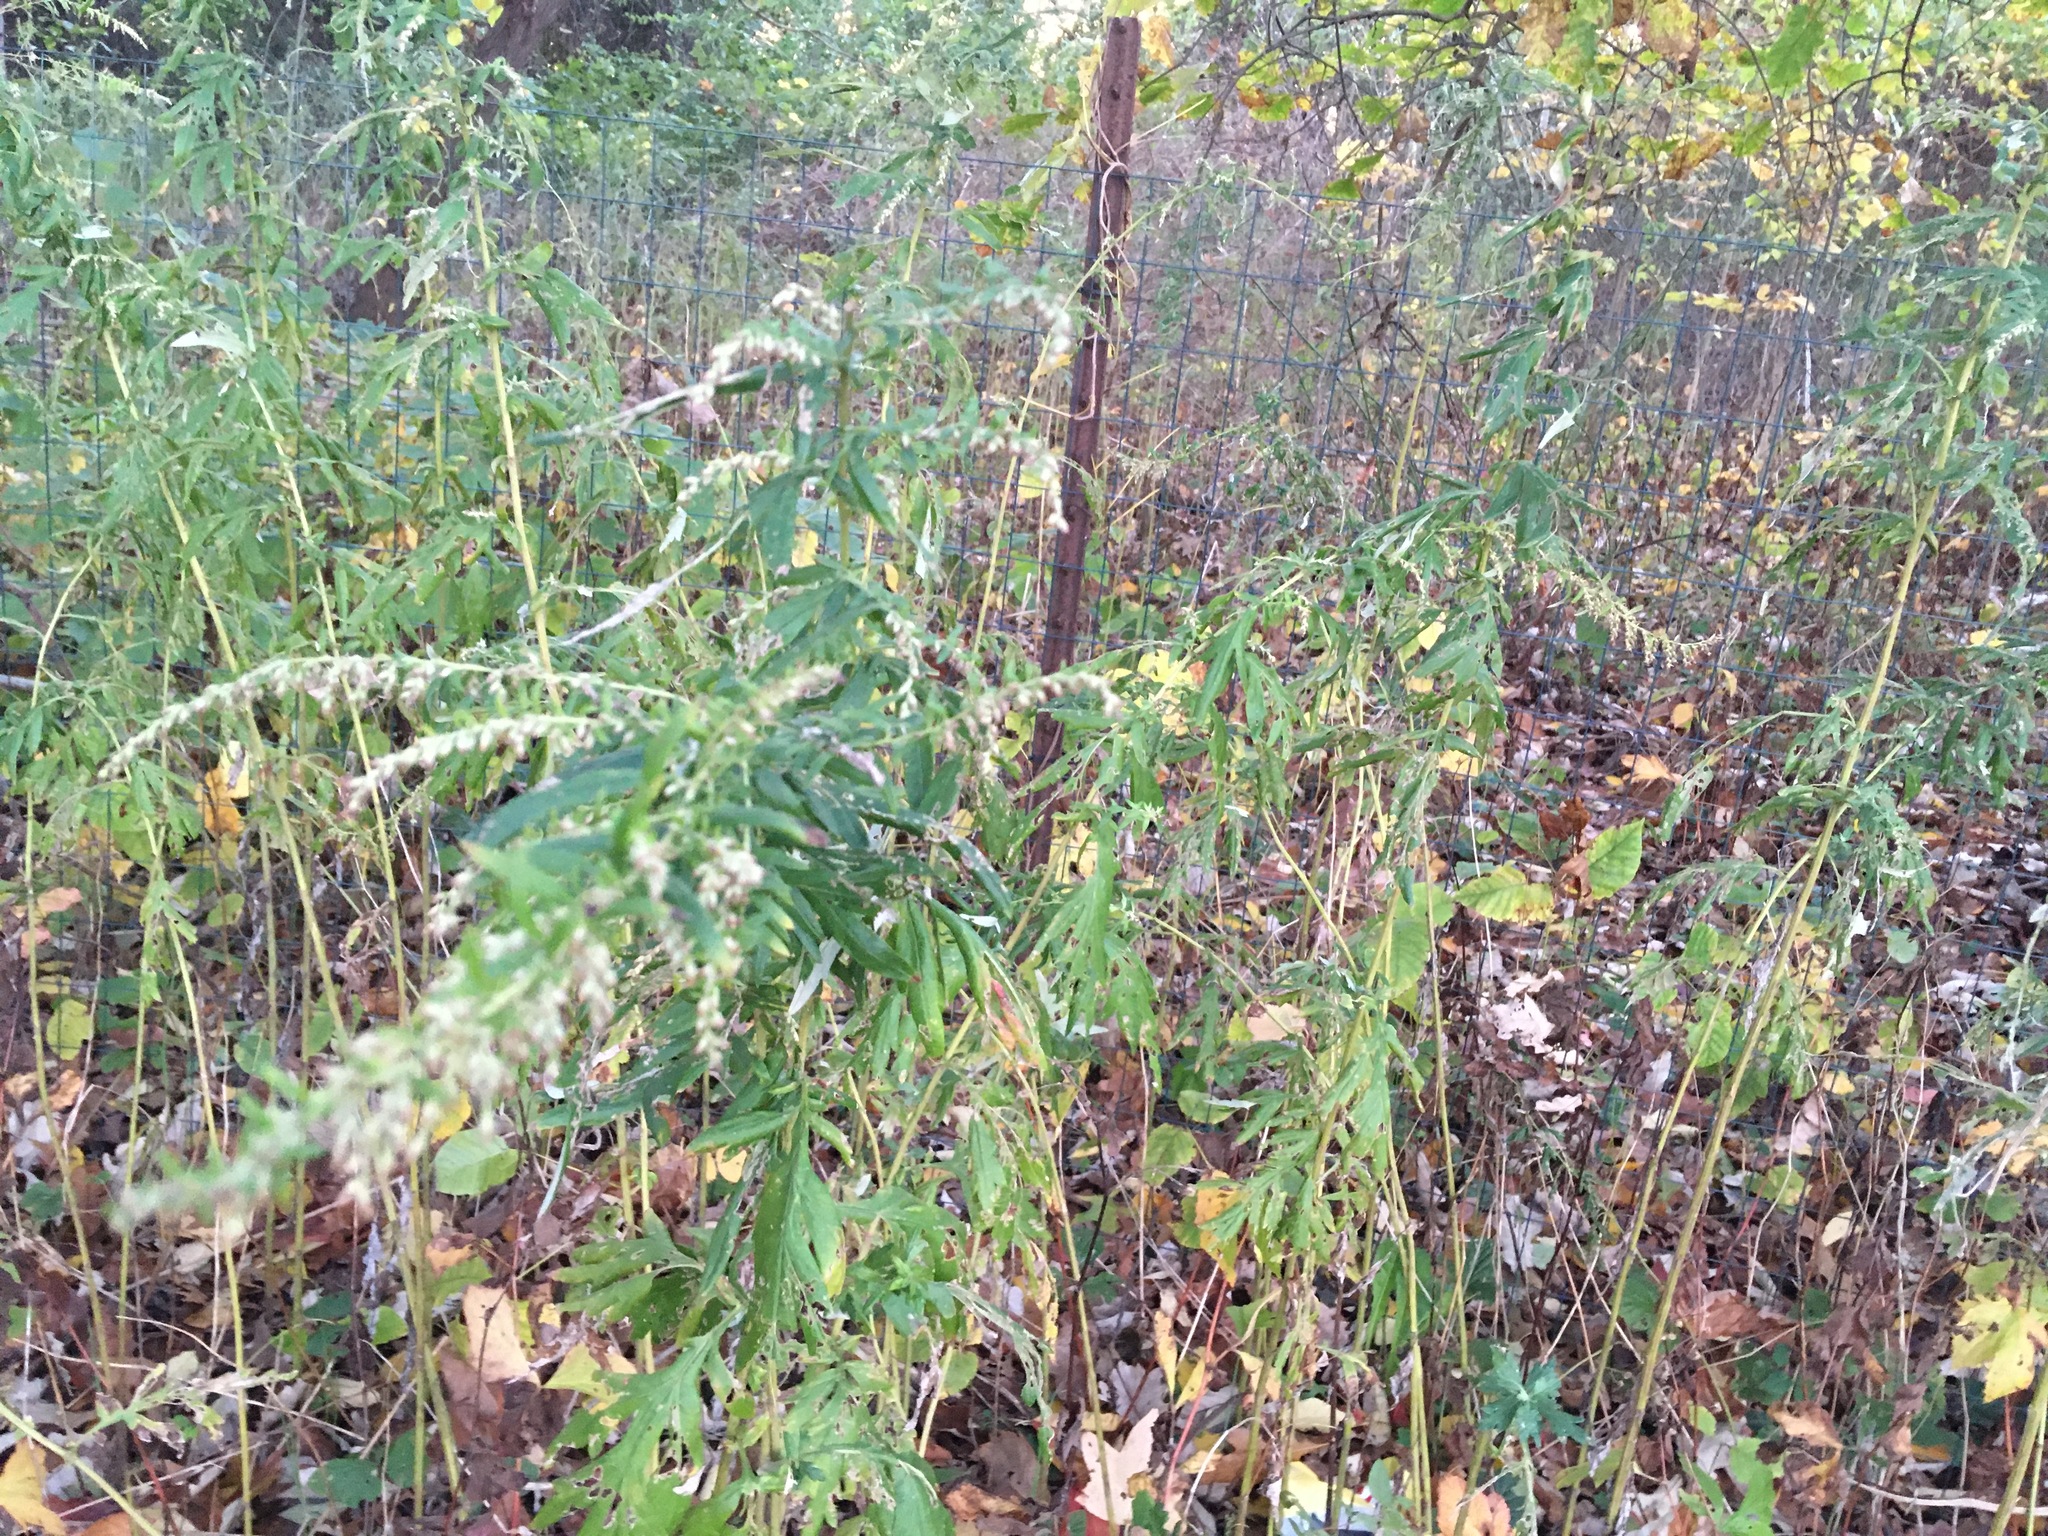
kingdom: Plantae
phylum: Tracheophyta
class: Magnoliopsida
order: Asterales
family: Asteraceae
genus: Artemisia
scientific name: Artemisia vulgaris
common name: Mugwort
